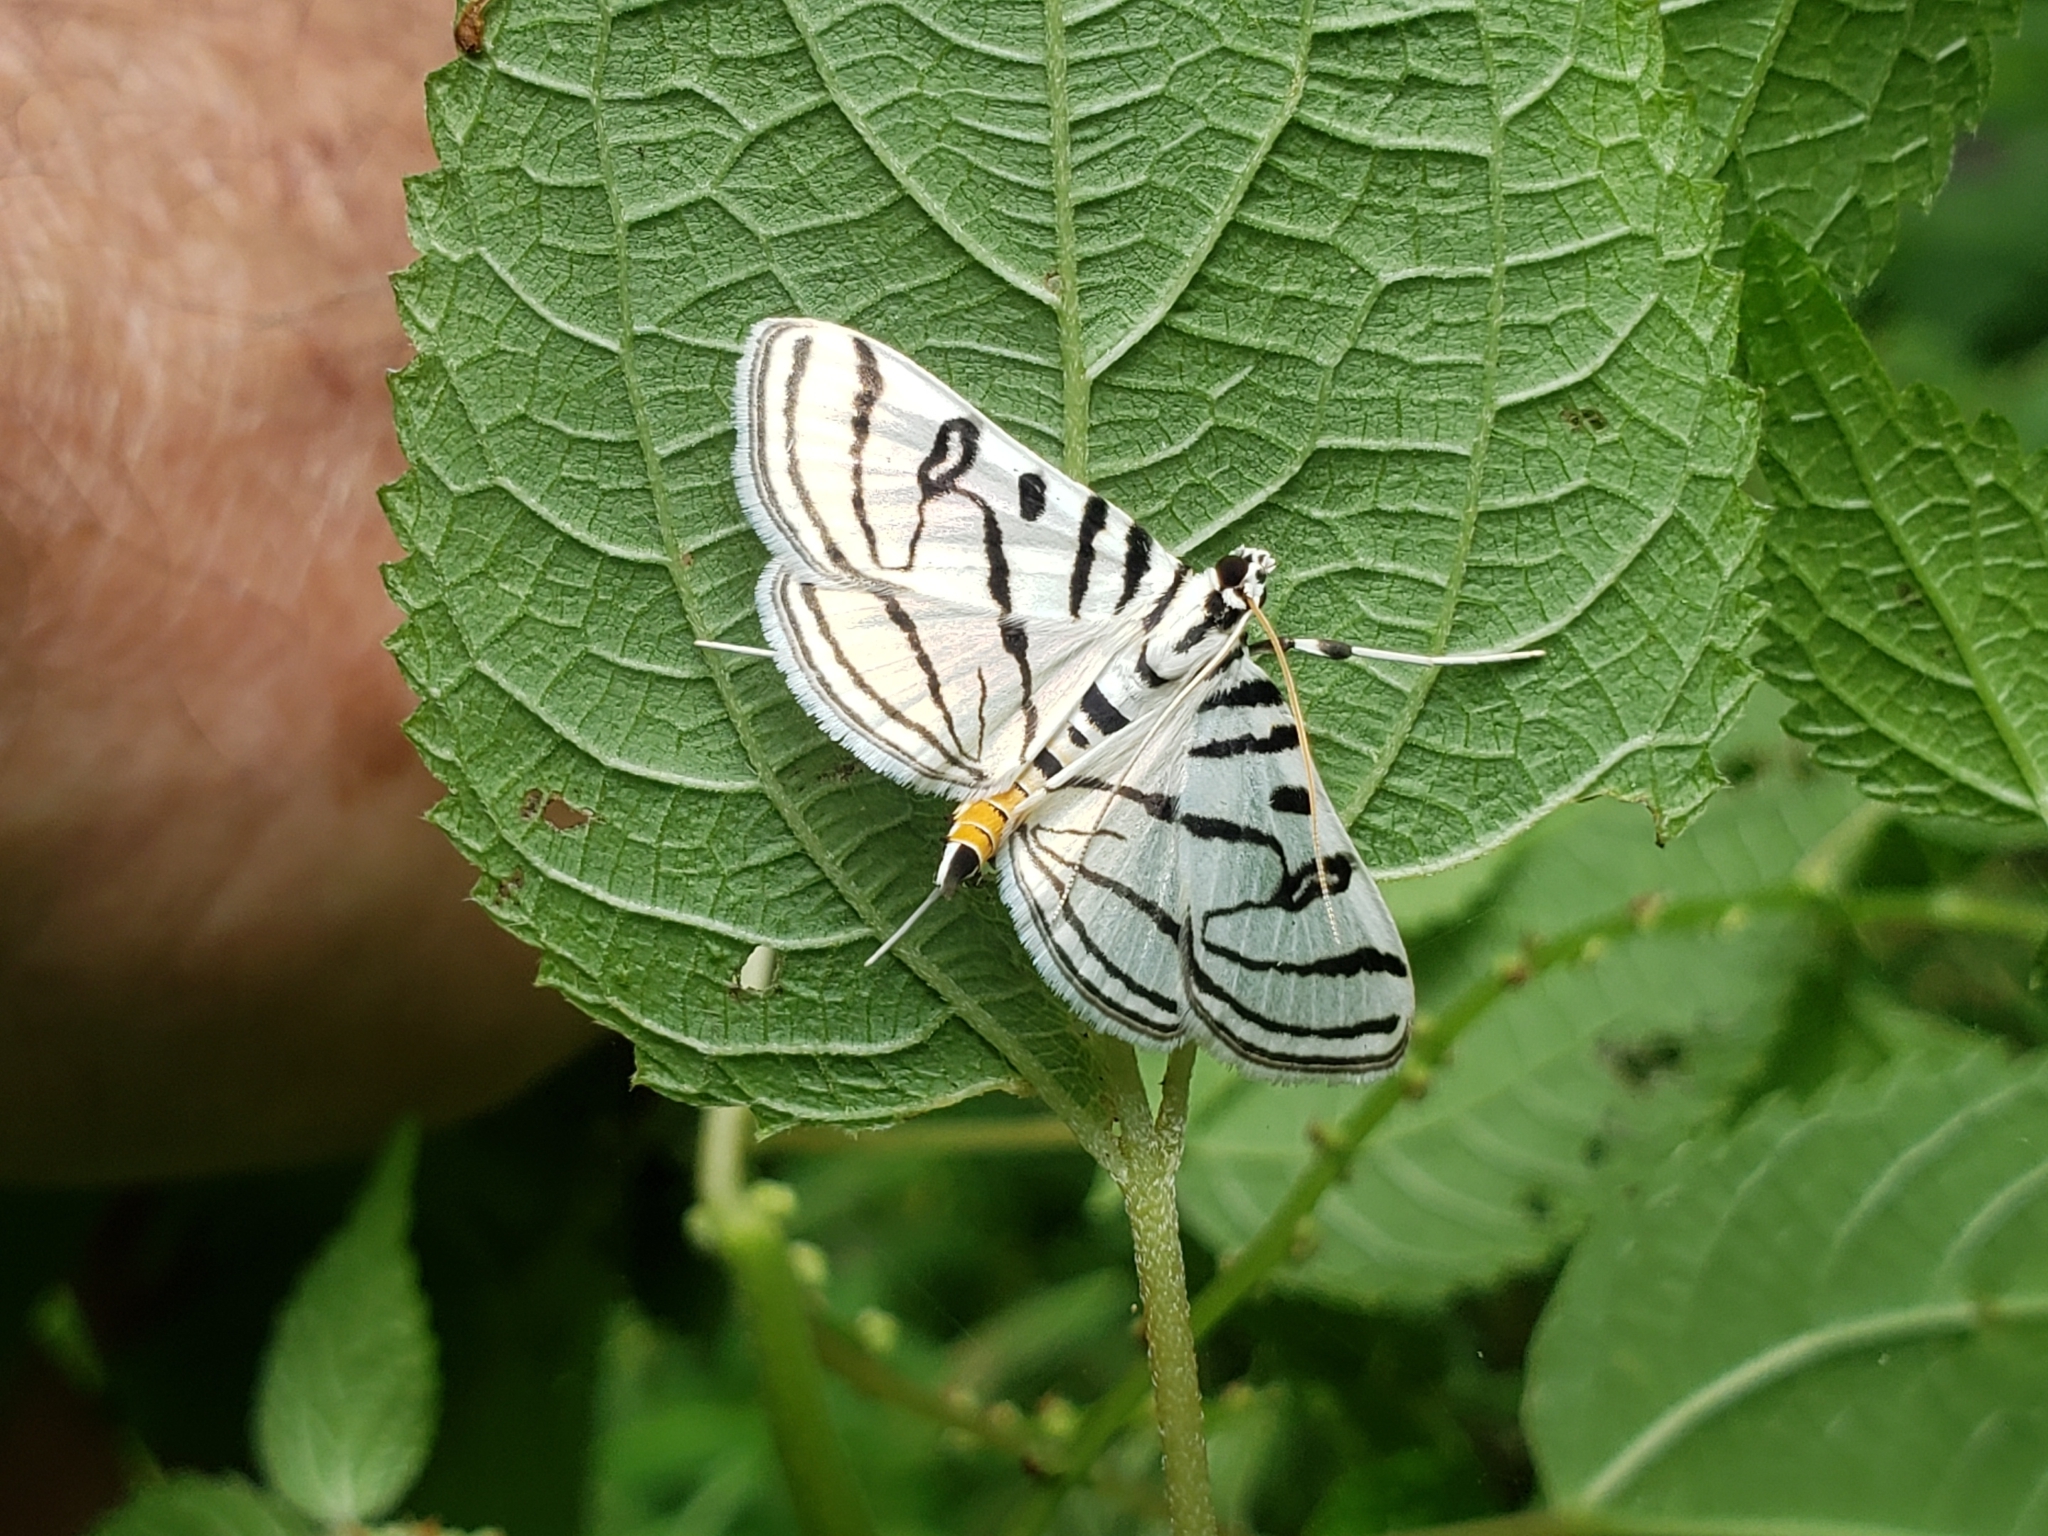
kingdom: Animalia
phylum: Arthropoda
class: Insecta
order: Lepidoptera
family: Crambidae
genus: Conchylodes
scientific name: Conchylodes ovulalis
